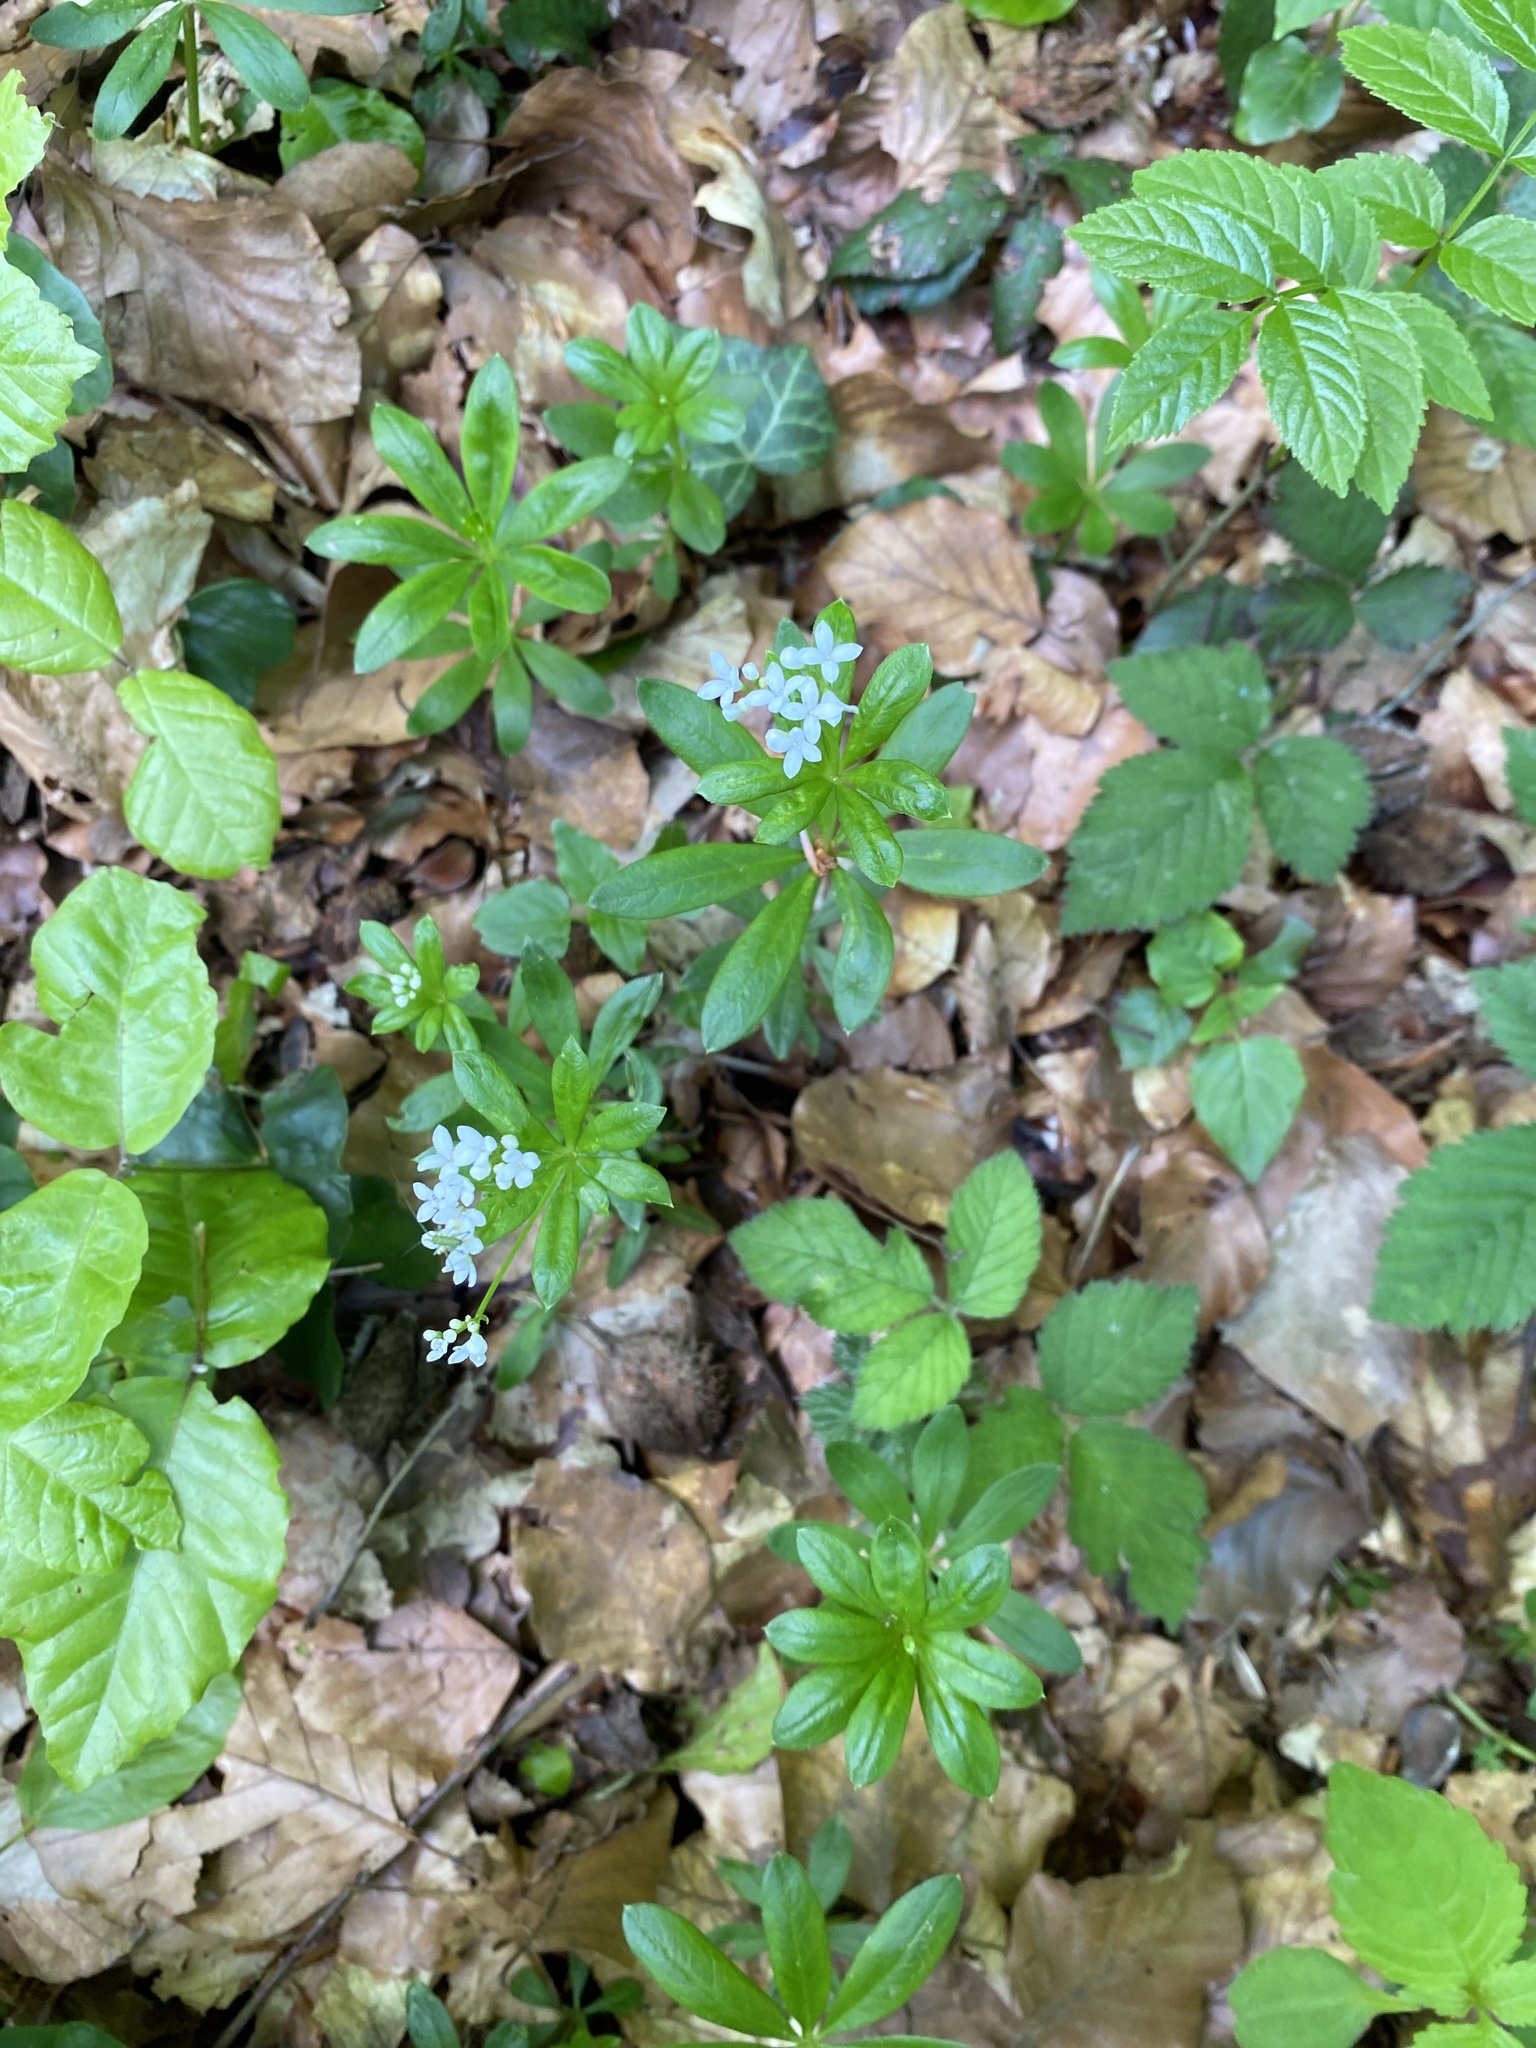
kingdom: Plantae
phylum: Tracheophyta
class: Magnoliopsida
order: Gentianales
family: Rubiaceae
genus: Galium
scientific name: Galium odoratum
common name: Sweet woodruff
